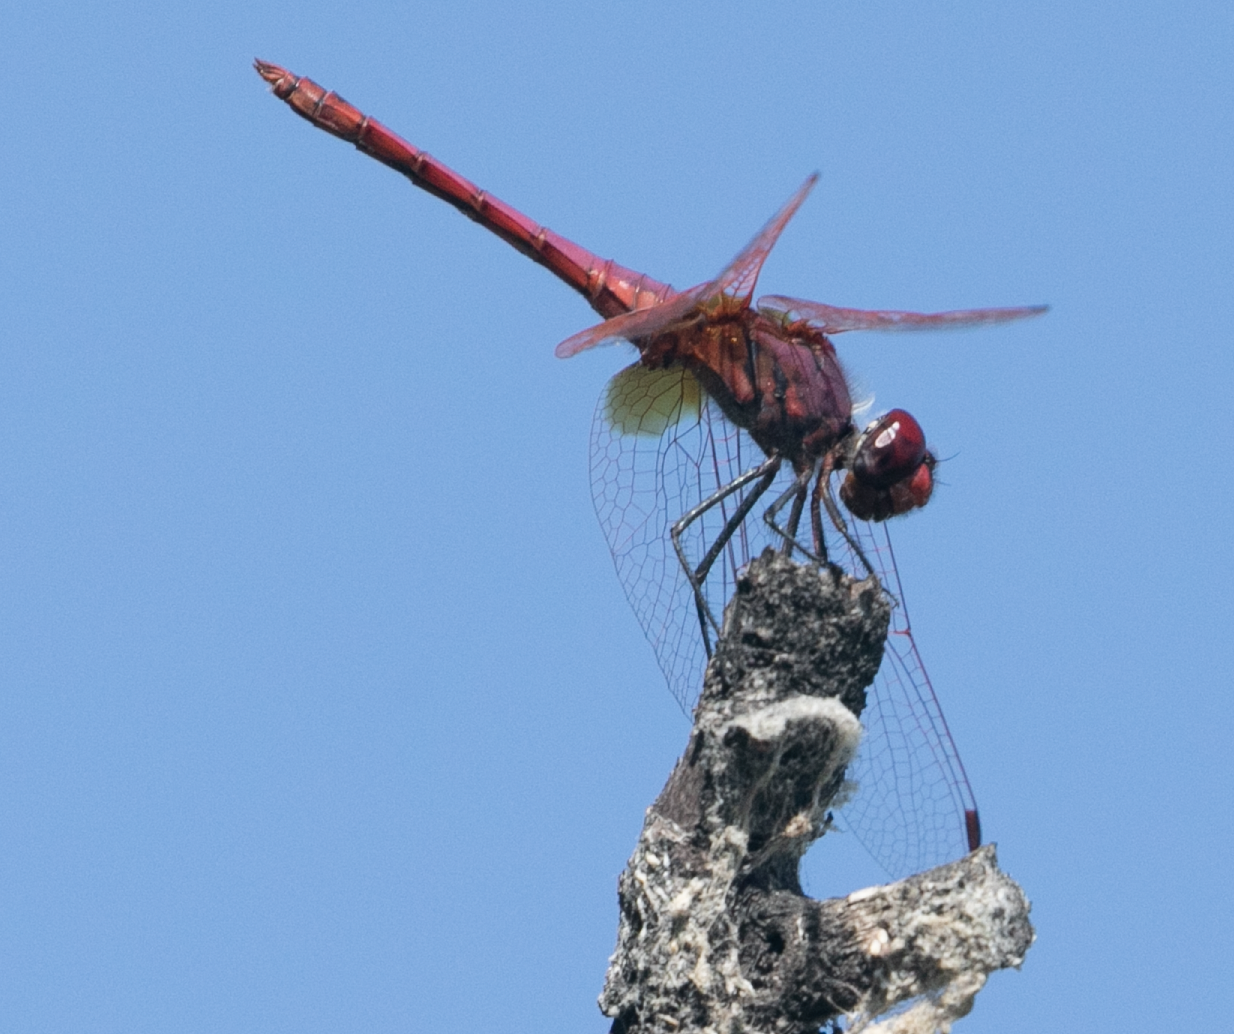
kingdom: Animalia
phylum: Arthropoda
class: Insecta
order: Odonata
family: Libellulidae
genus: Trithemis
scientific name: Trithemis annulata
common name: Violet dropwing
